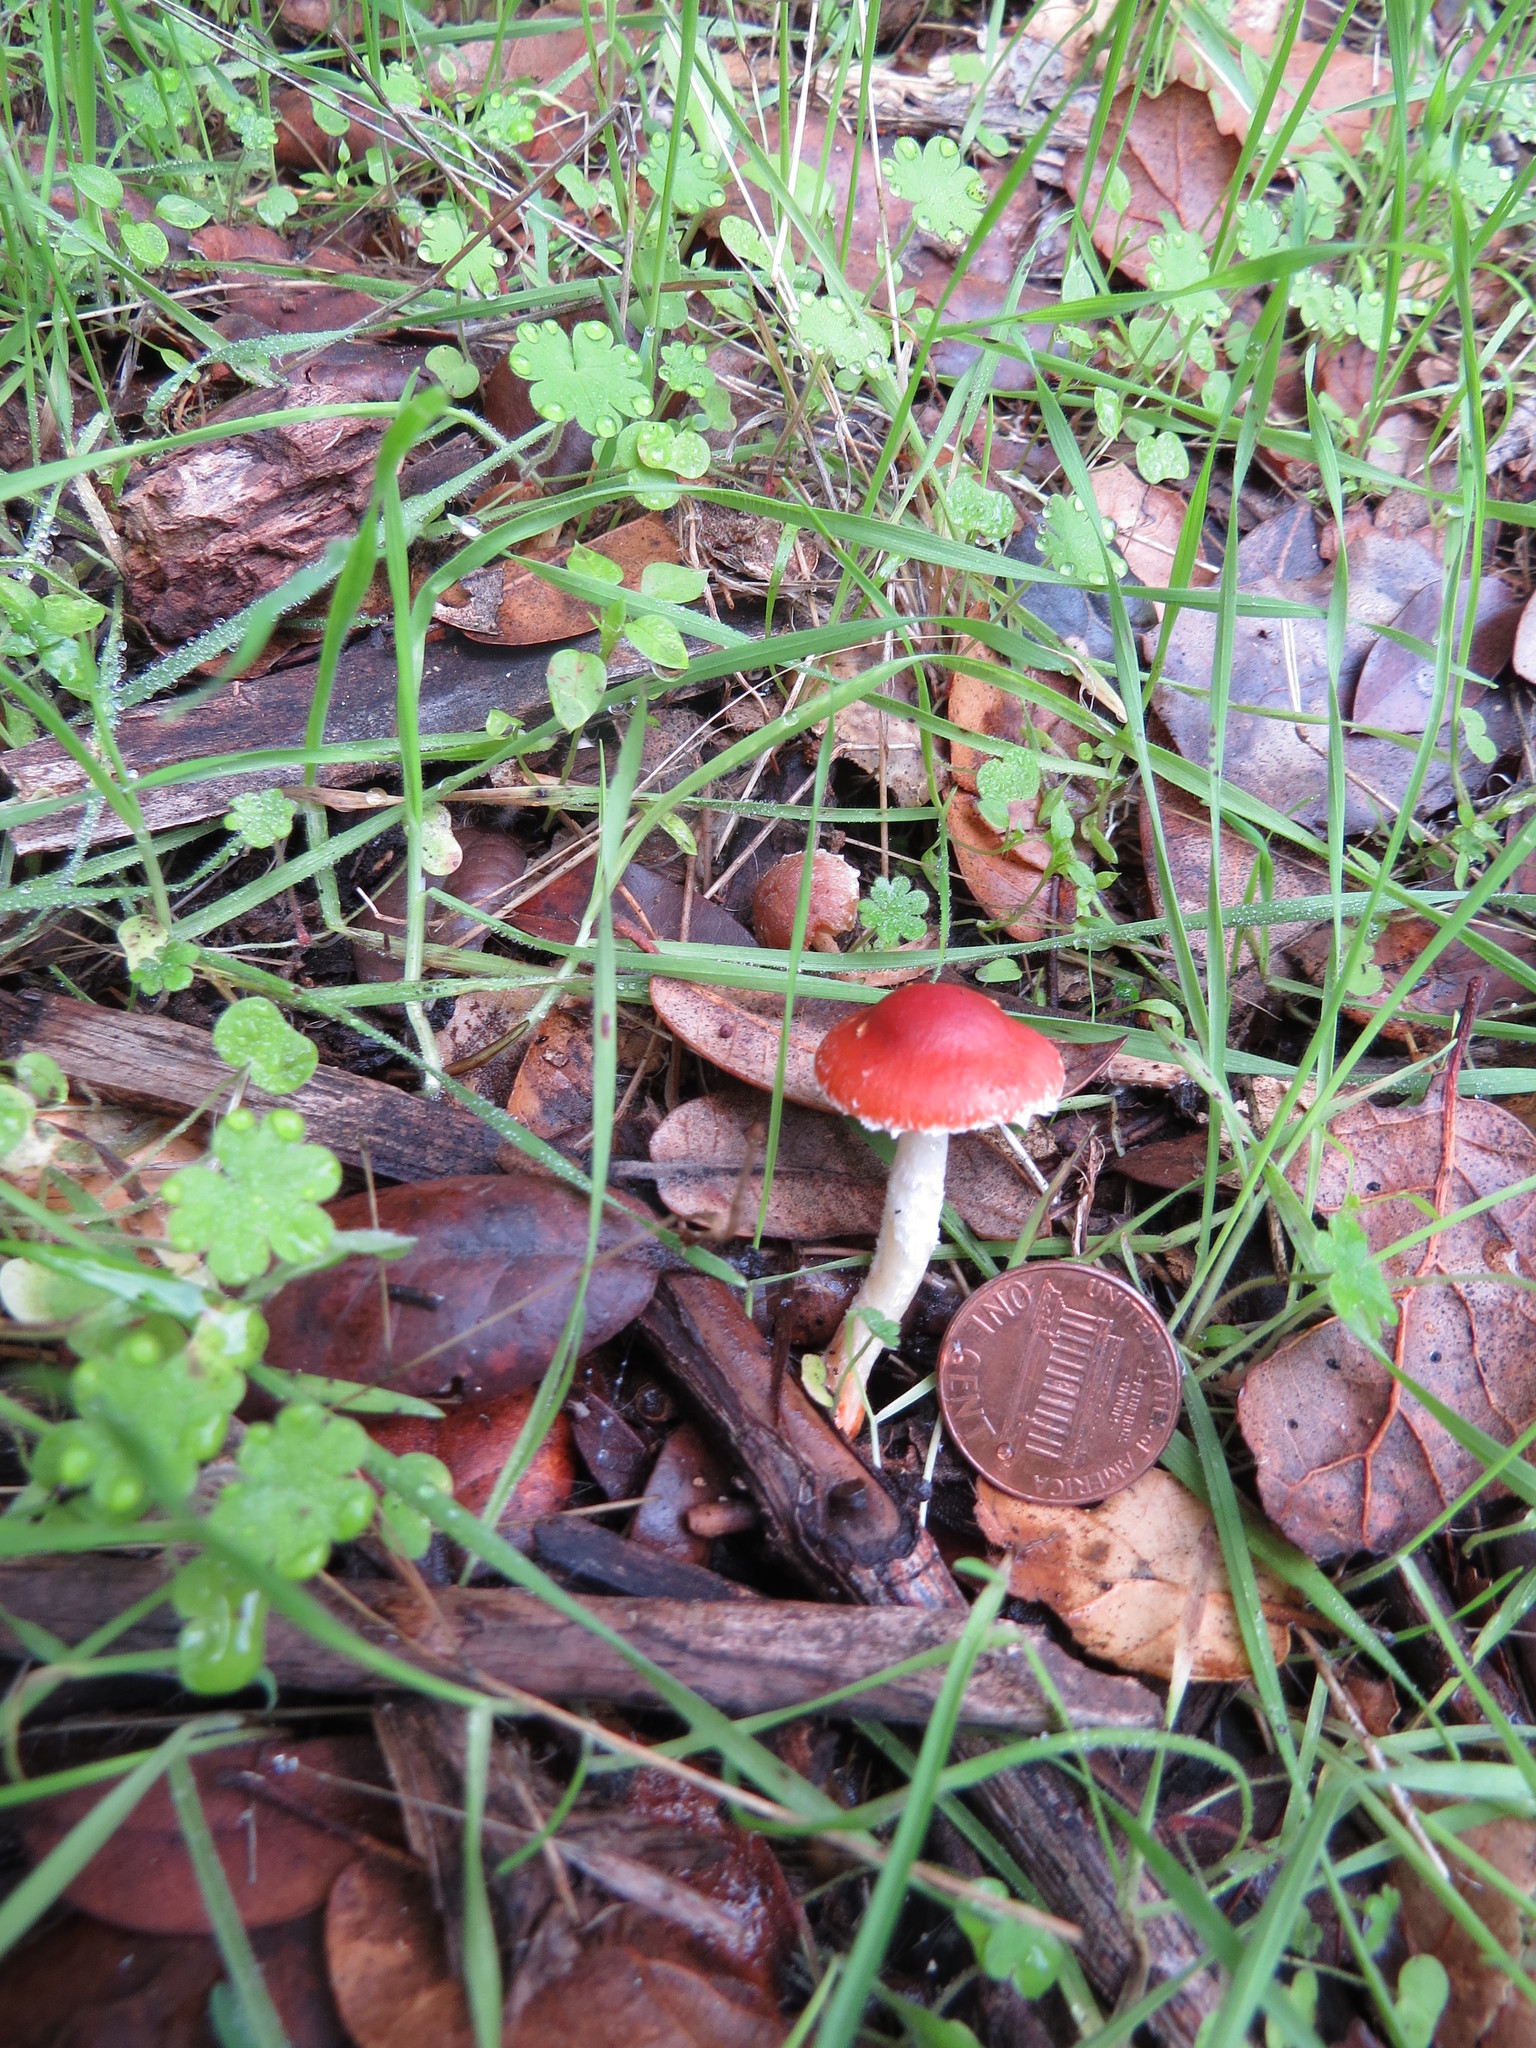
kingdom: Fungi
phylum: Basidiomycota
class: Agaricomycetes
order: Agaricales
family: Strophariaceae
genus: Leratiomyces
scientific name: Leratiomyces ceres
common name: Redlead roundhead
